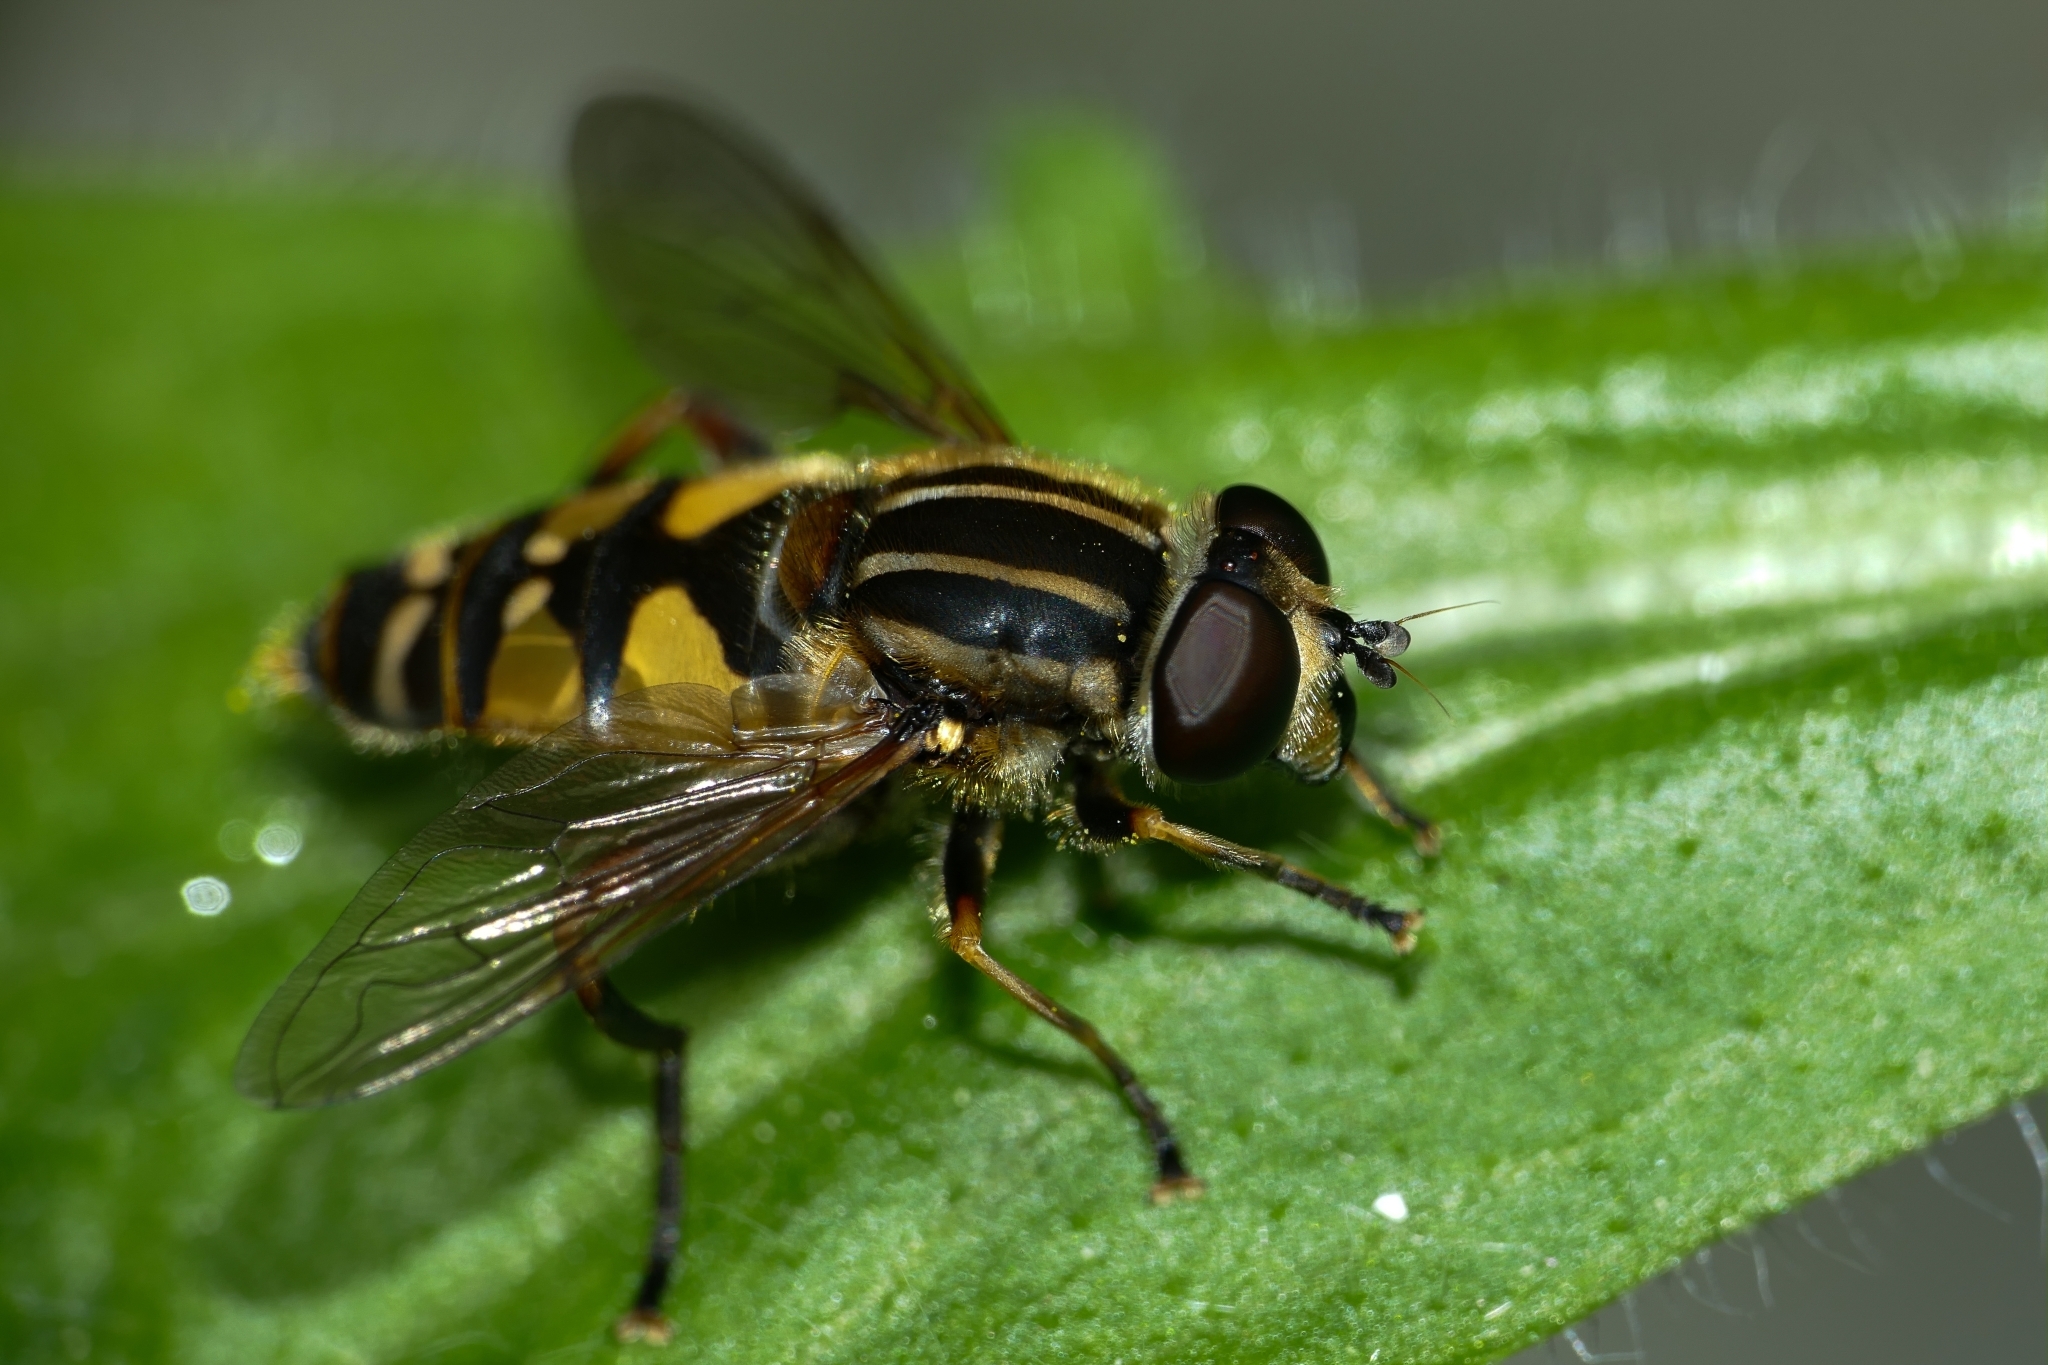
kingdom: Animalia
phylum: Arthropoda
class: Insecta
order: Diptera
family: Syrphidae
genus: Helophilus
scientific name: Helophilus pendulus
